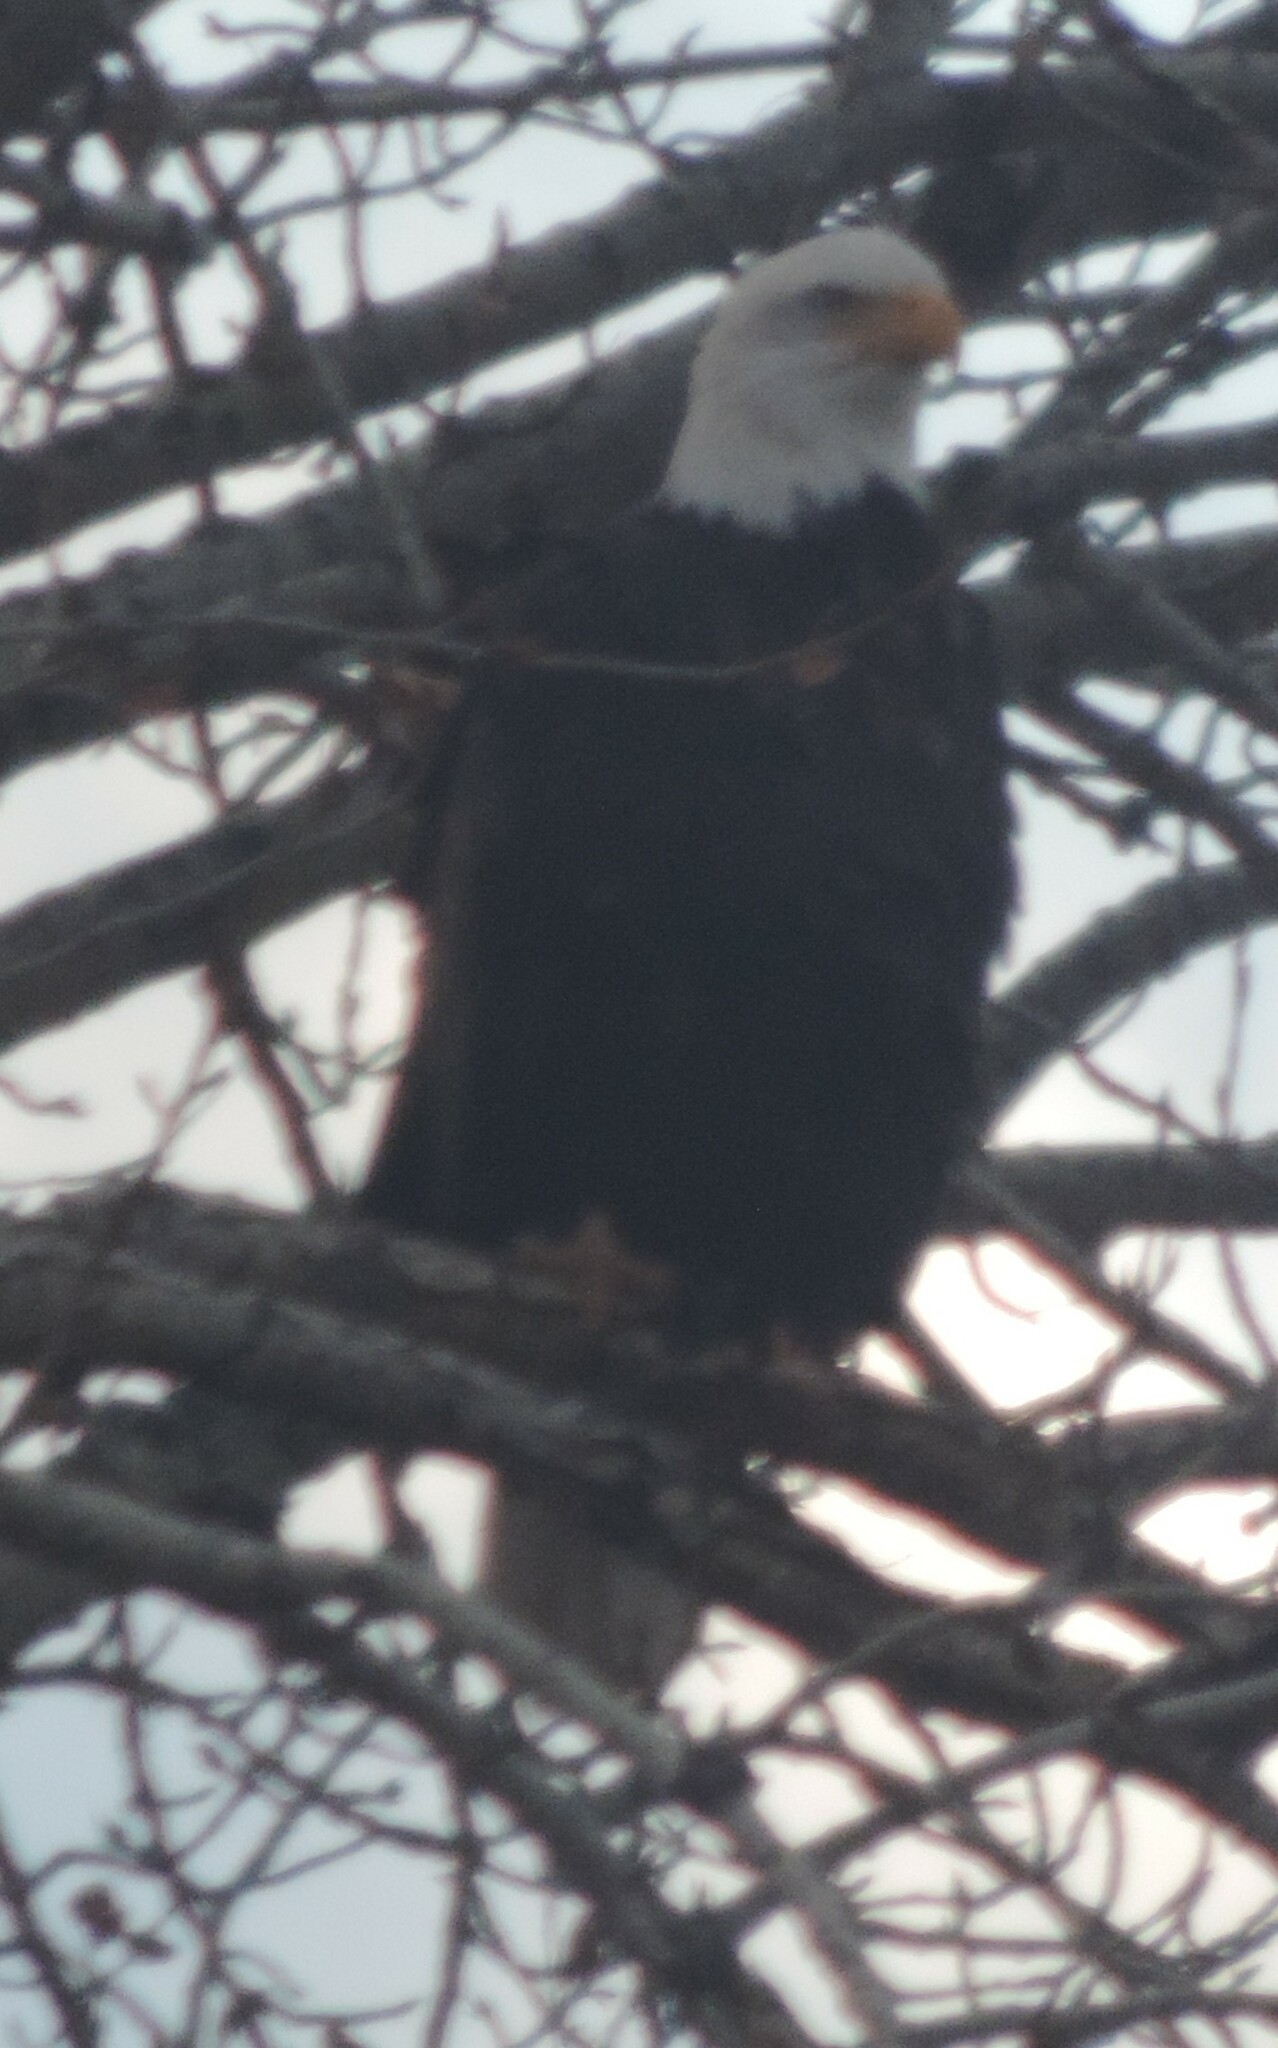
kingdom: Animalia
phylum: Chordata
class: Aves
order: Accipitriformes
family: Accipitridae
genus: Haliaeetus
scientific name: Haliaeetus leucocephalus
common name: Bald eagle
